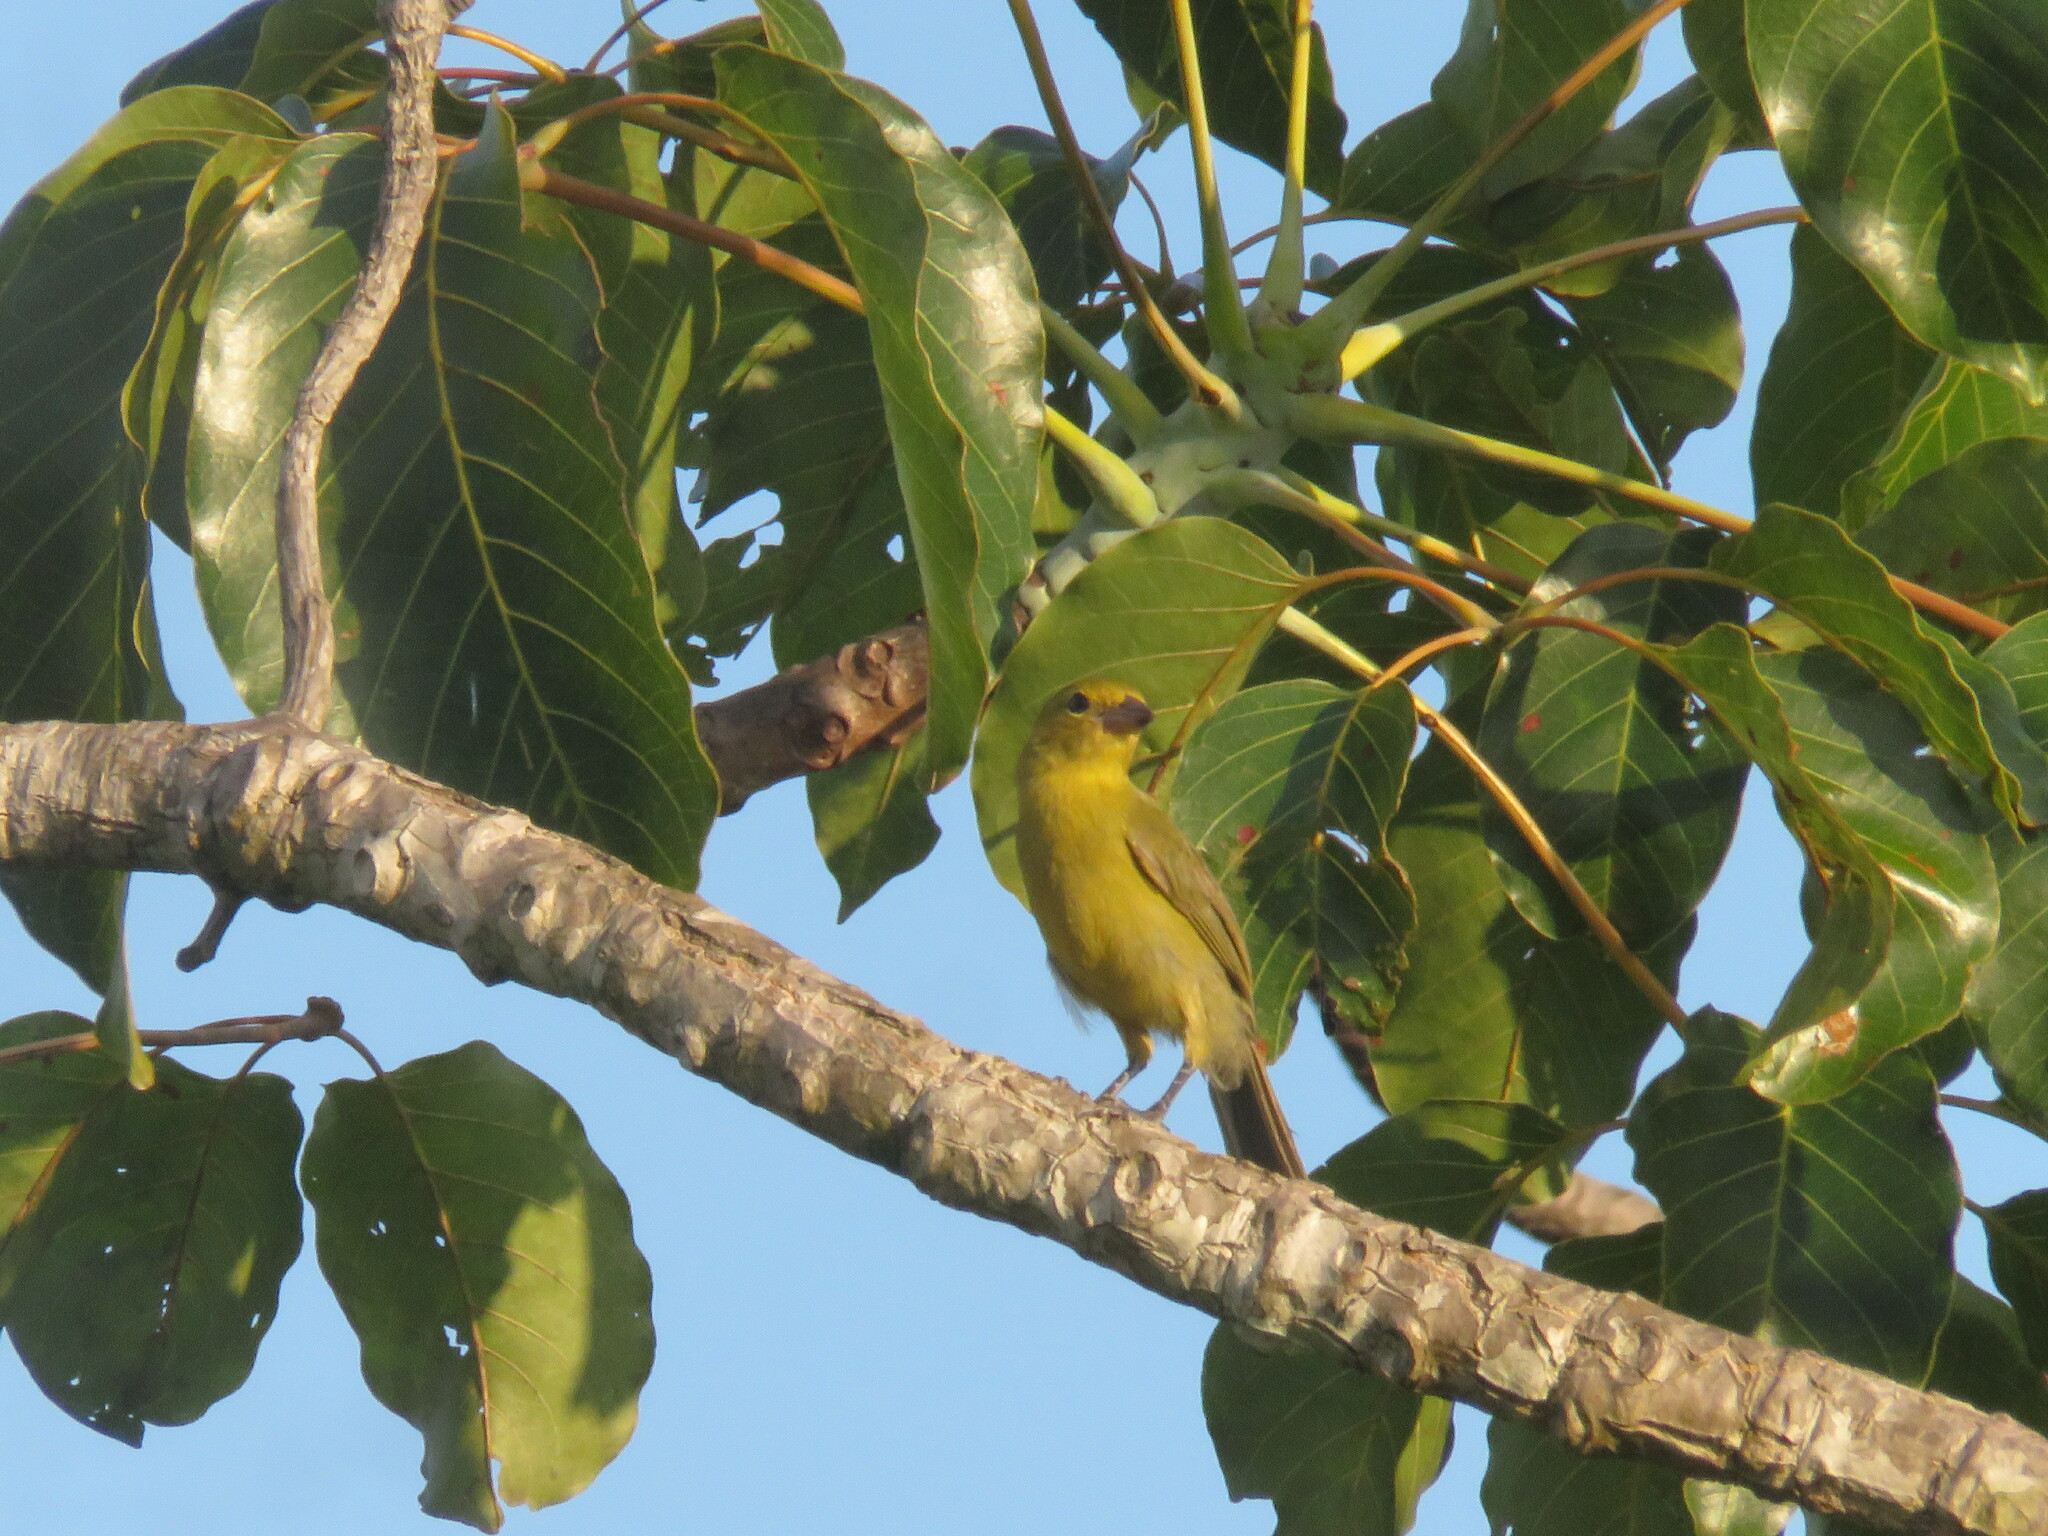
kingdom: Animalia
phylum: Chordata
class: Aves
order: Passeriformes
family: Thraupidae
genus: Schistochlamys
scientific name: Schistochlamys melanopis
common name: Black-faced tanager
